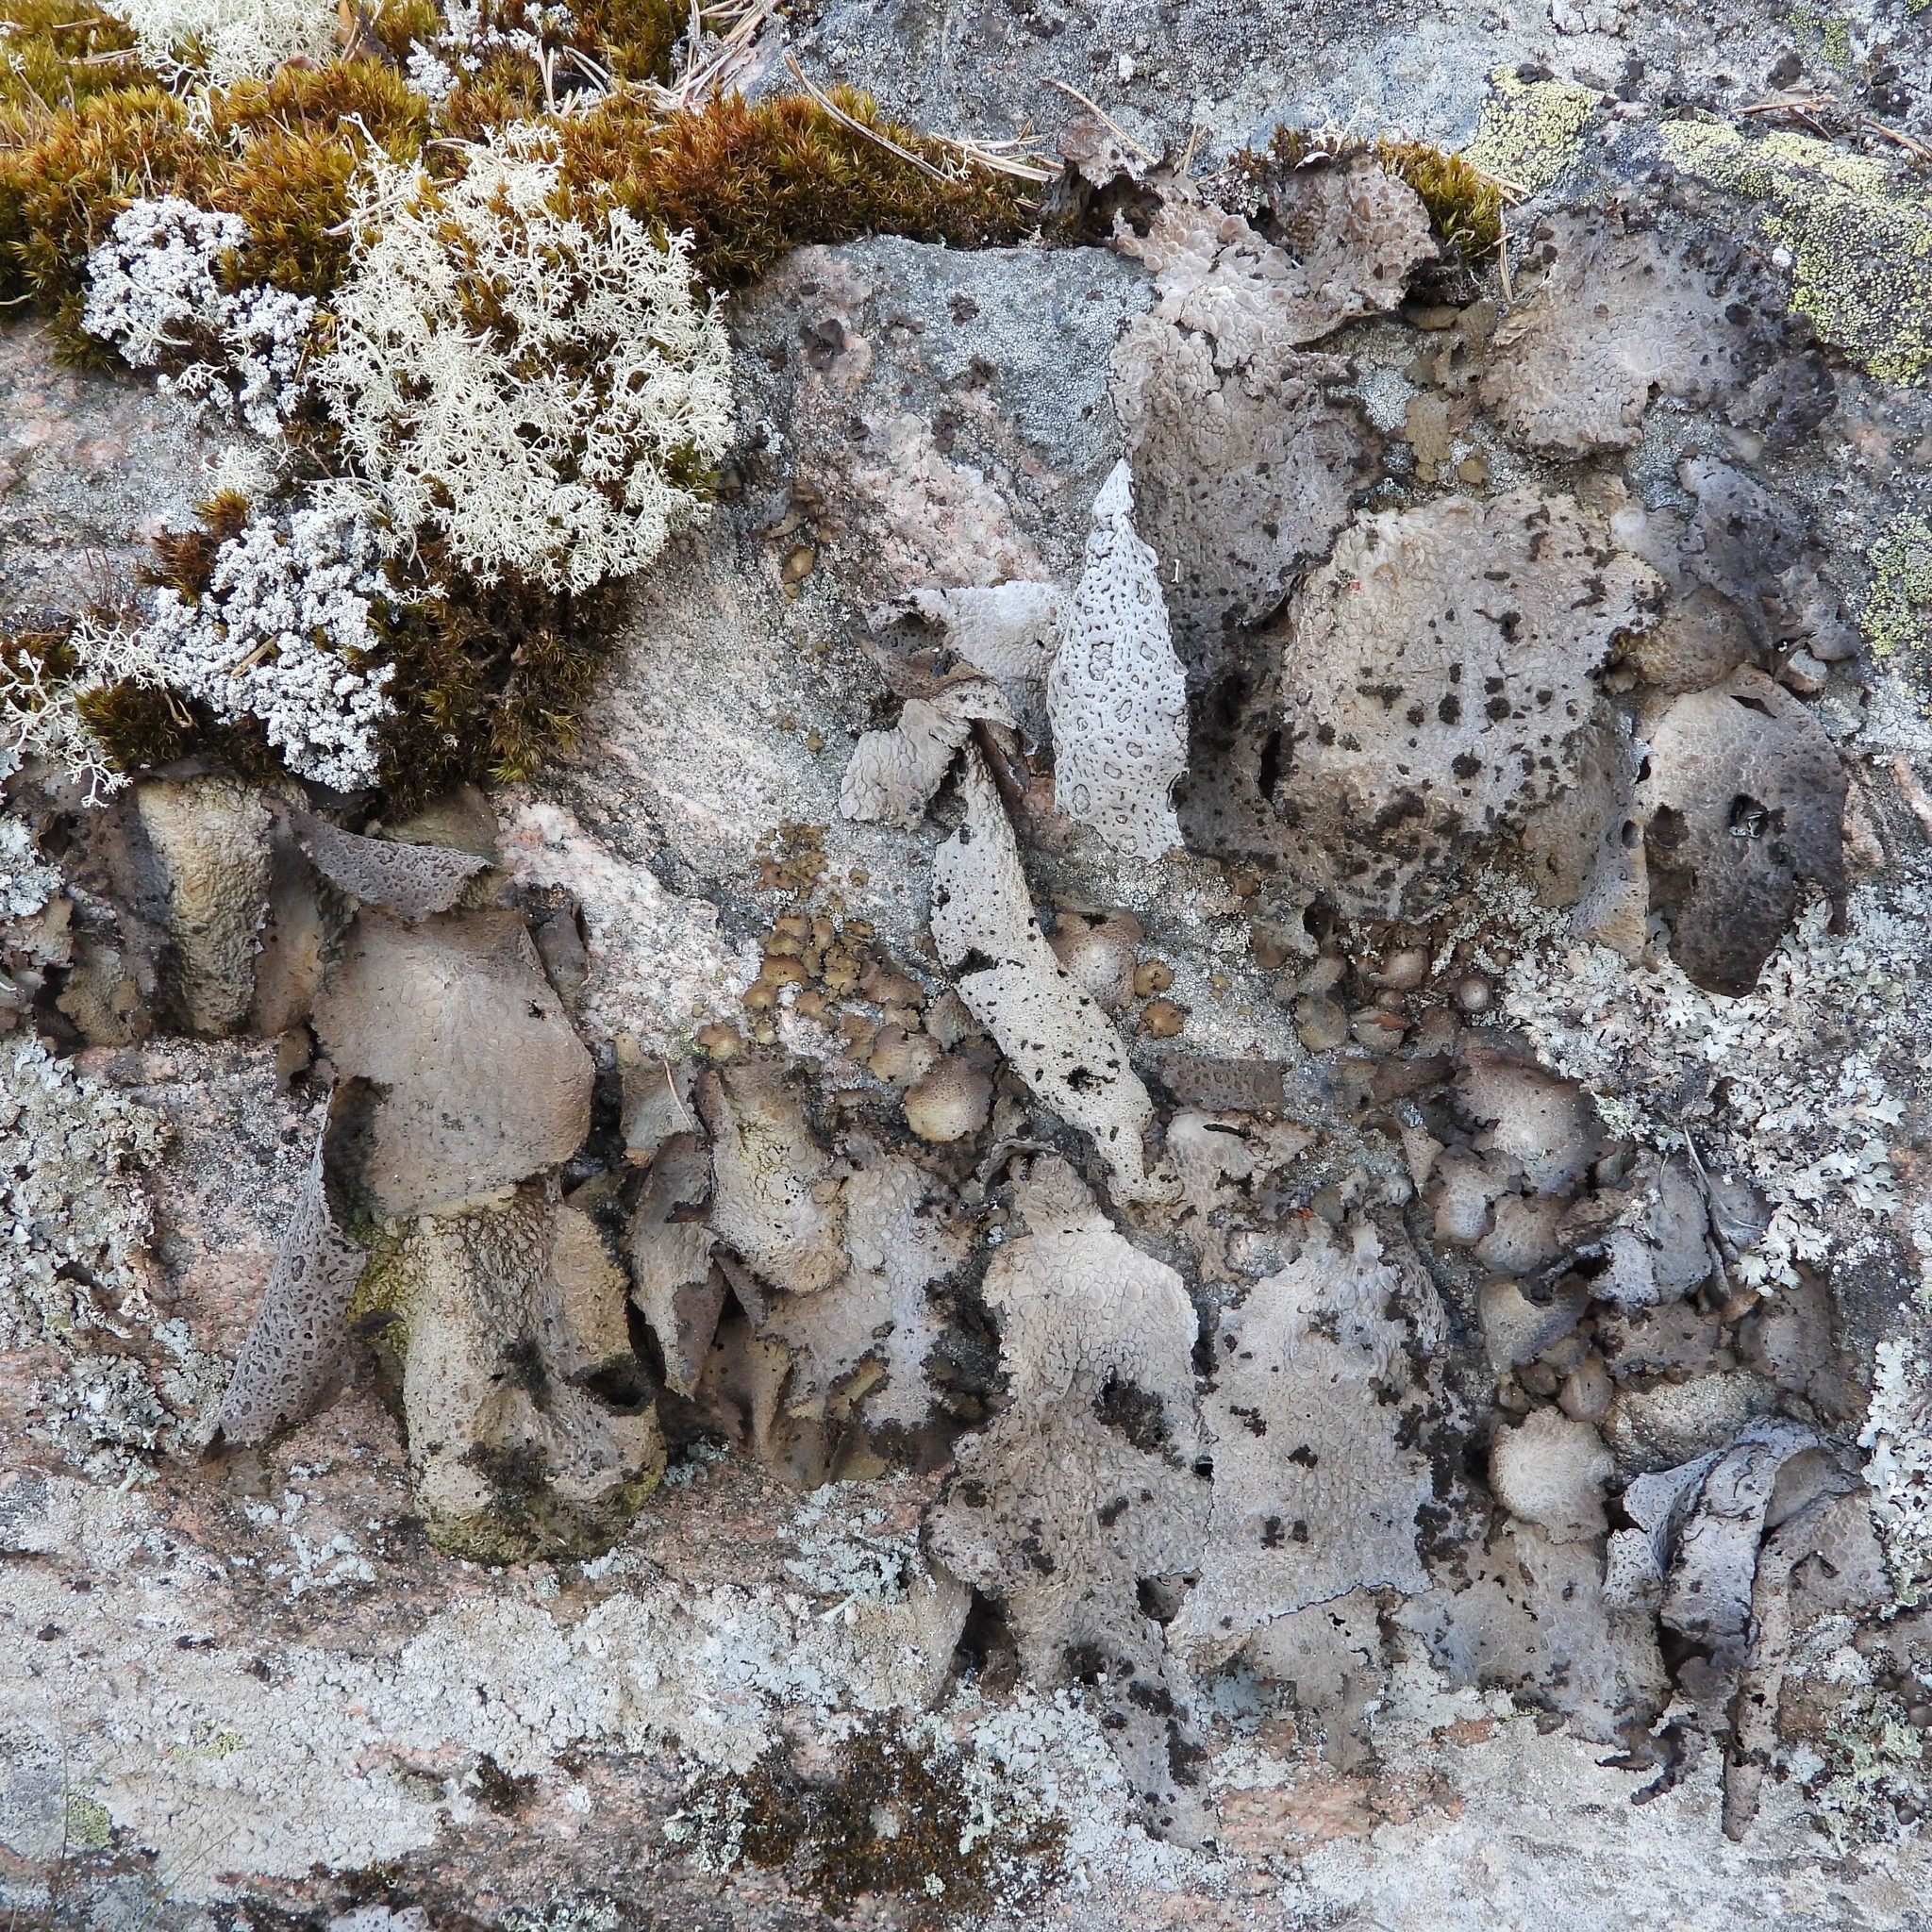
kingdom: Fungi
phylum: Ascomycota
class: Lecanoromycetes
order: Umbilicariales
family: Umbilicariaceae
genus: Lasallia
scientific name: Lasallia pustulata
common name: Blistered toadskin lichen
